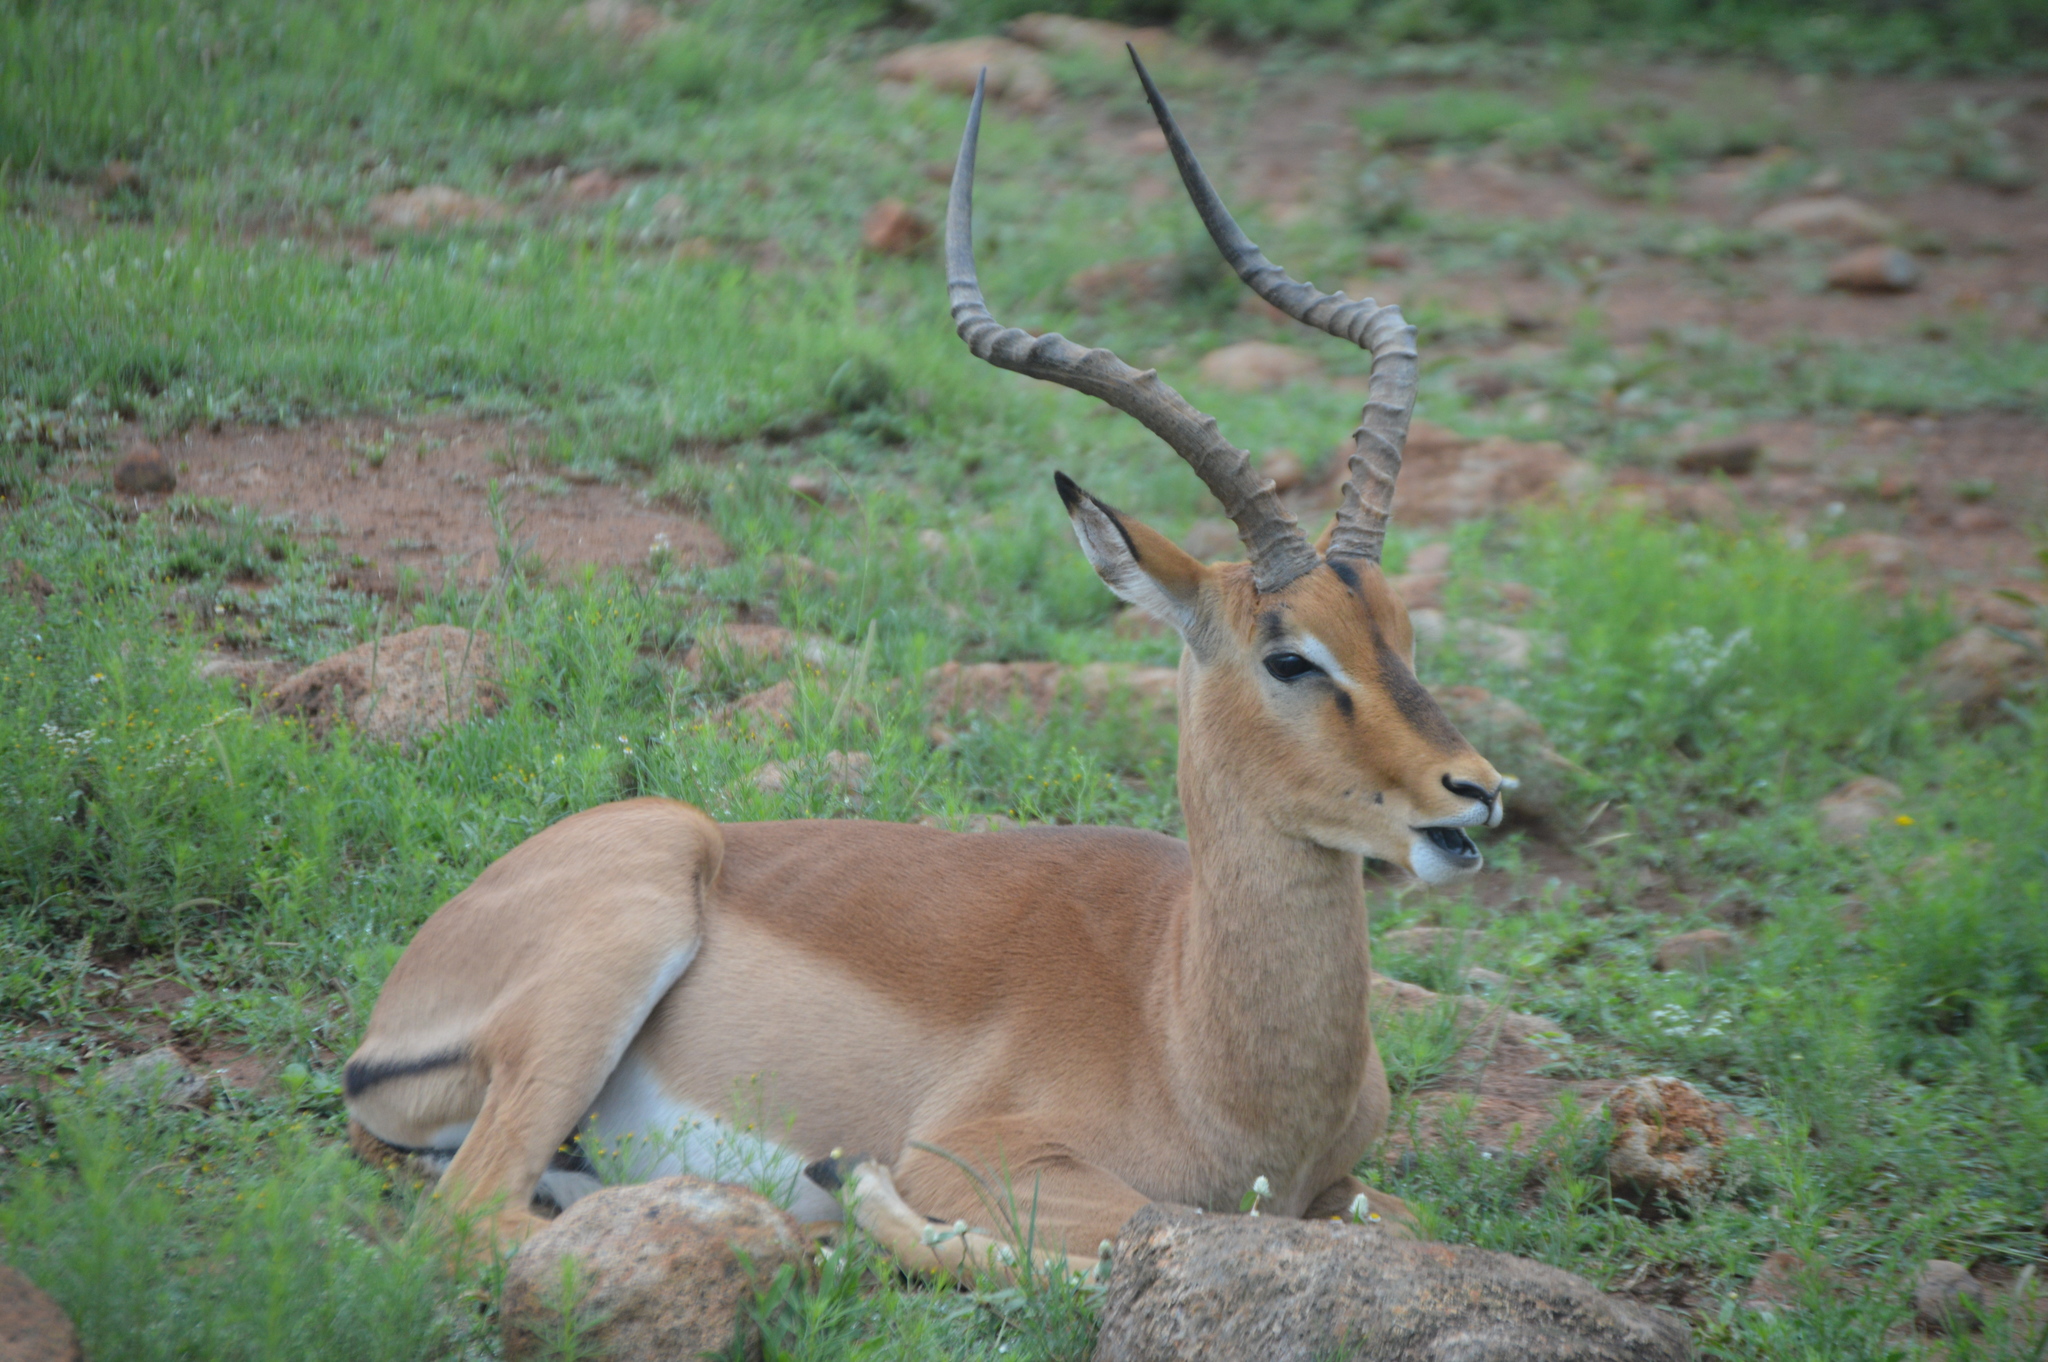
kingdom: Animalia
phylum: Chordata
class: Mammalia
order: Artiodactyla
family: Bovidae
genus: Aepyceros
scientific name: Aepyceros melampus
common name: Impala
